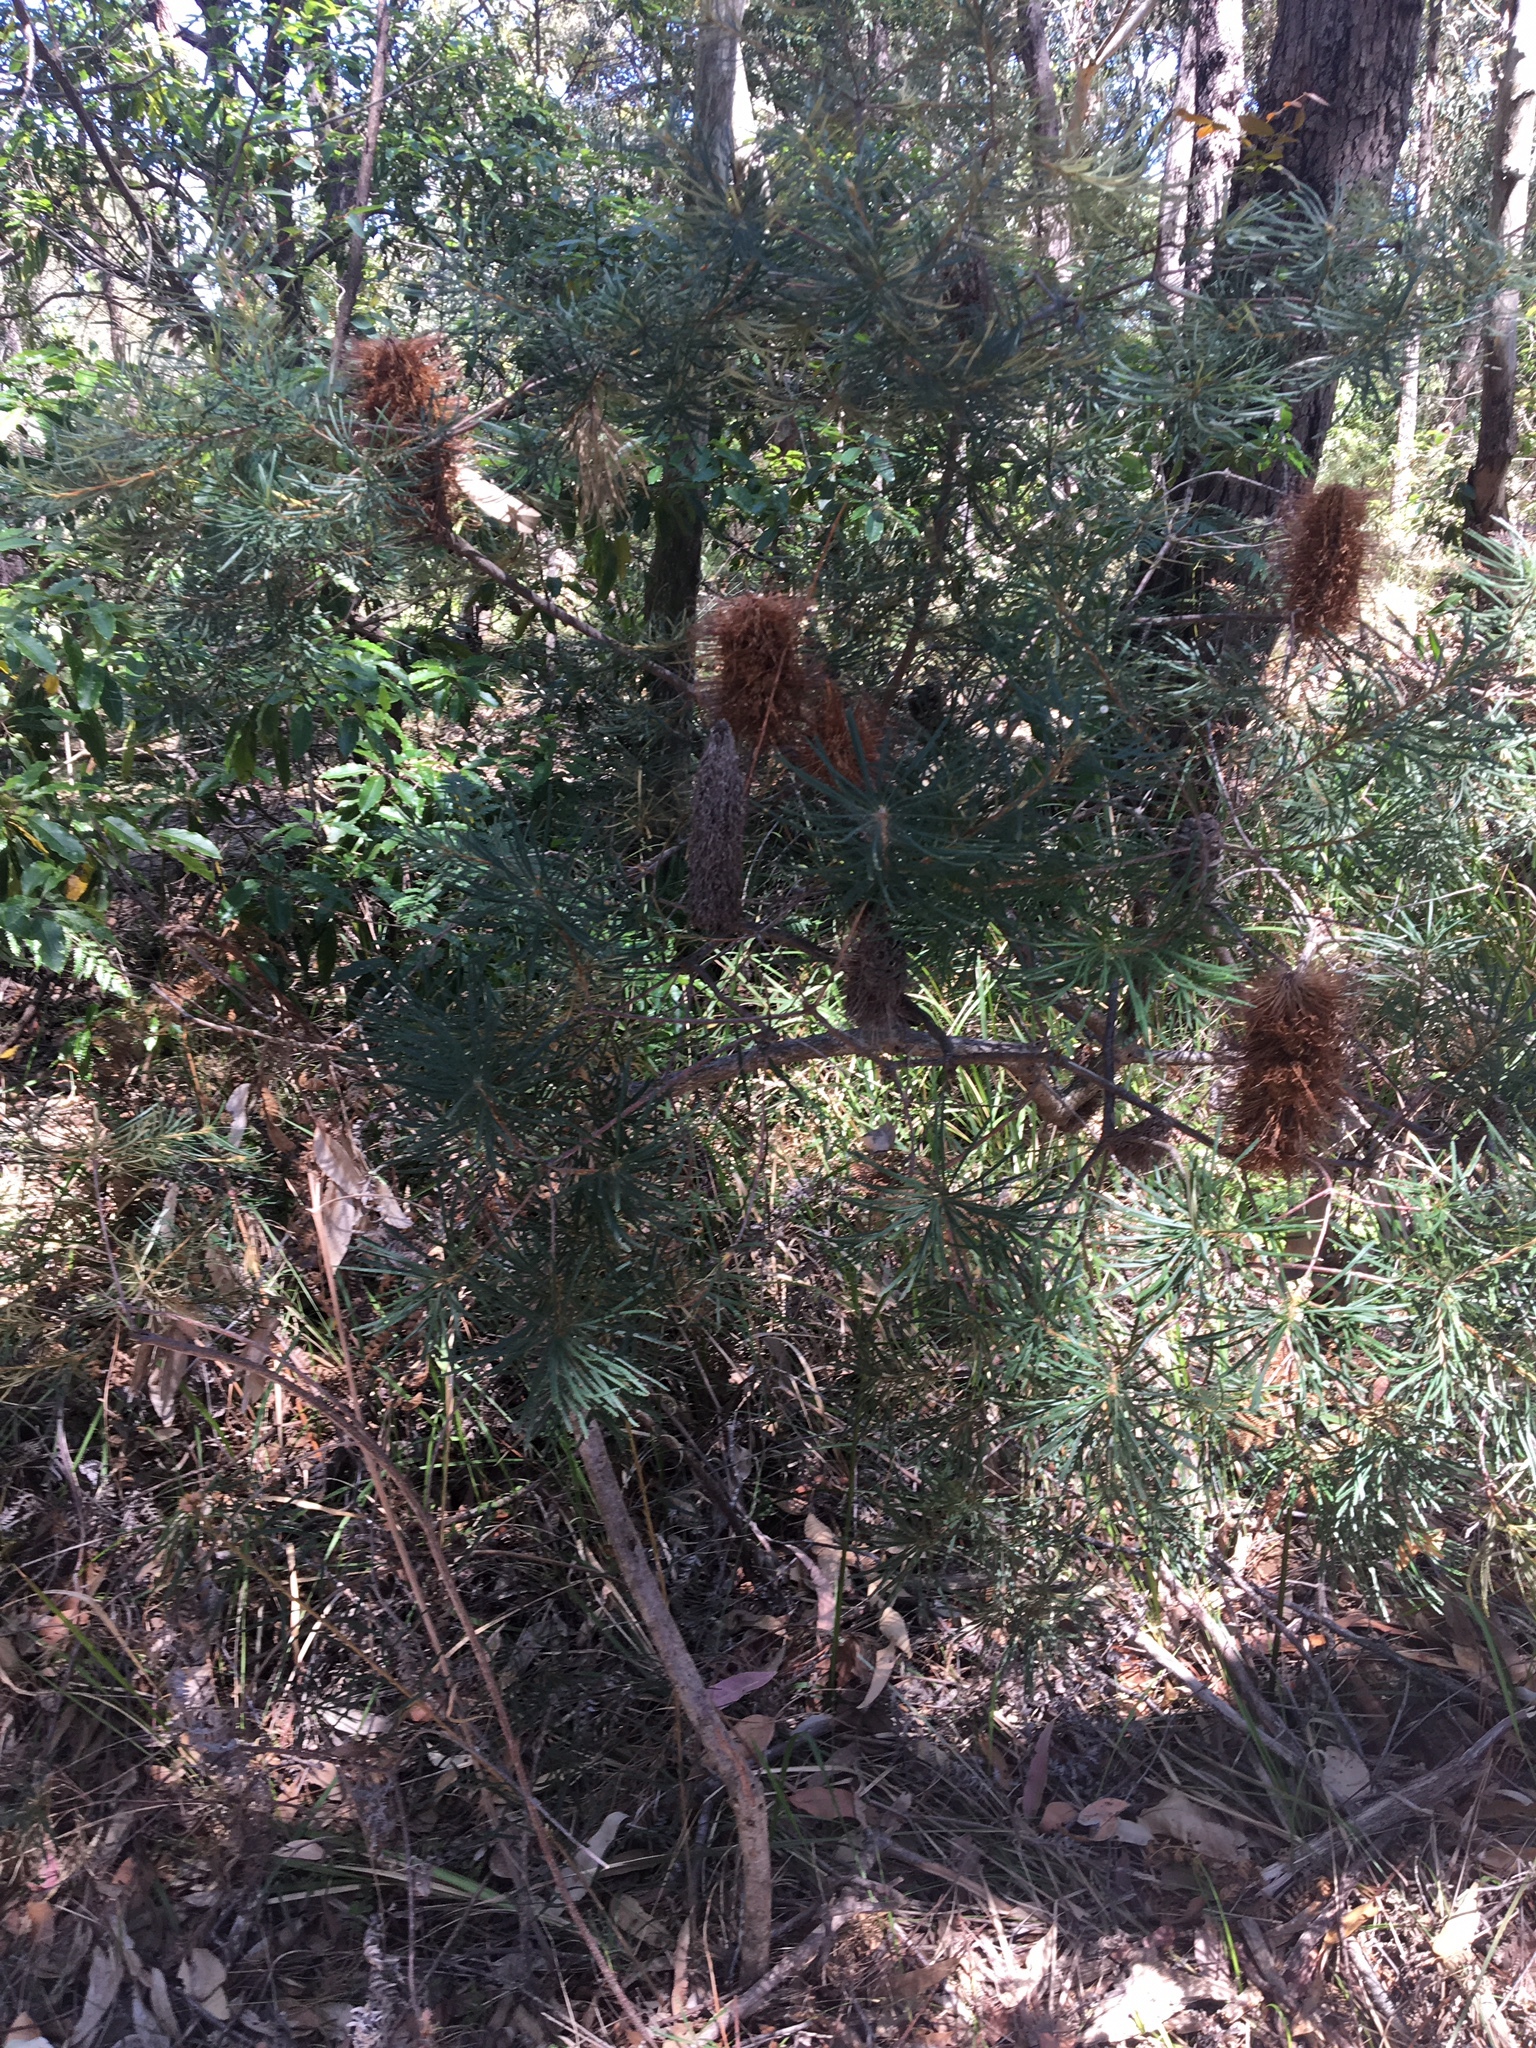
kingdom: Plantae
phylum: Tracheophyta
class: Magnoliopsida
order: Proteales
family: Proteaceae
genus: Banksia
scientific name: Banksia spinulosa
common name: Hairpin banksia
